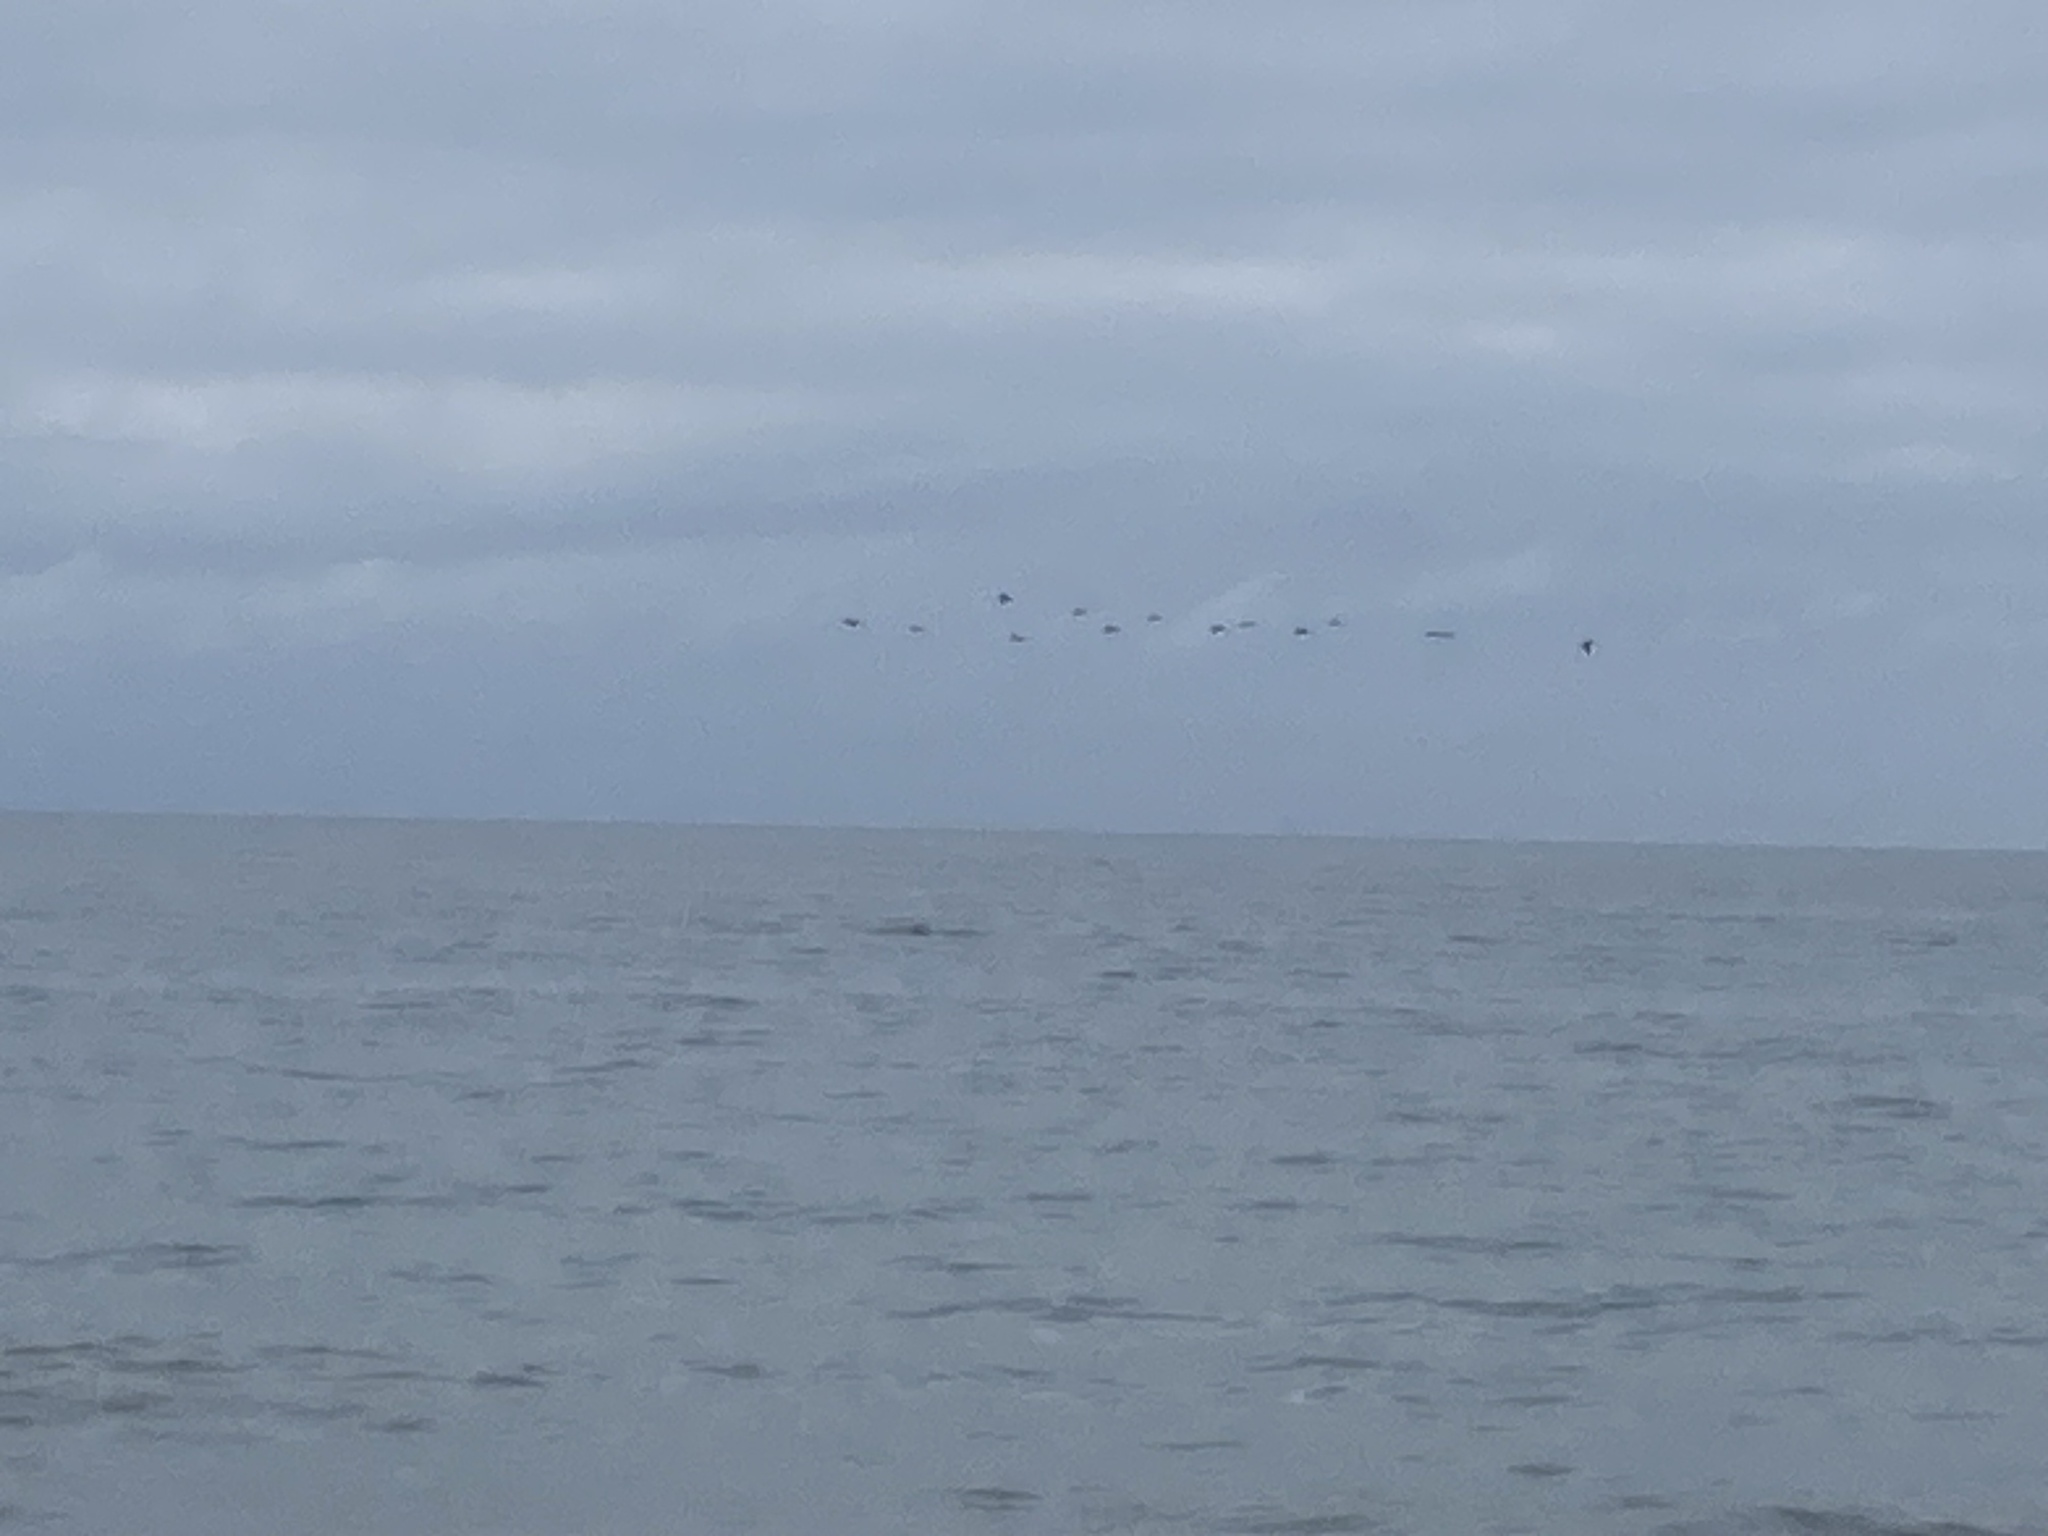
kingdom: Animalia
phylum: Chordata
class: Aves
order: Pelecaniformes
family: Pelecanidae
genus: Pelecanus
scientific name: Pelecanus occidentalis
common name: Brown pelican
